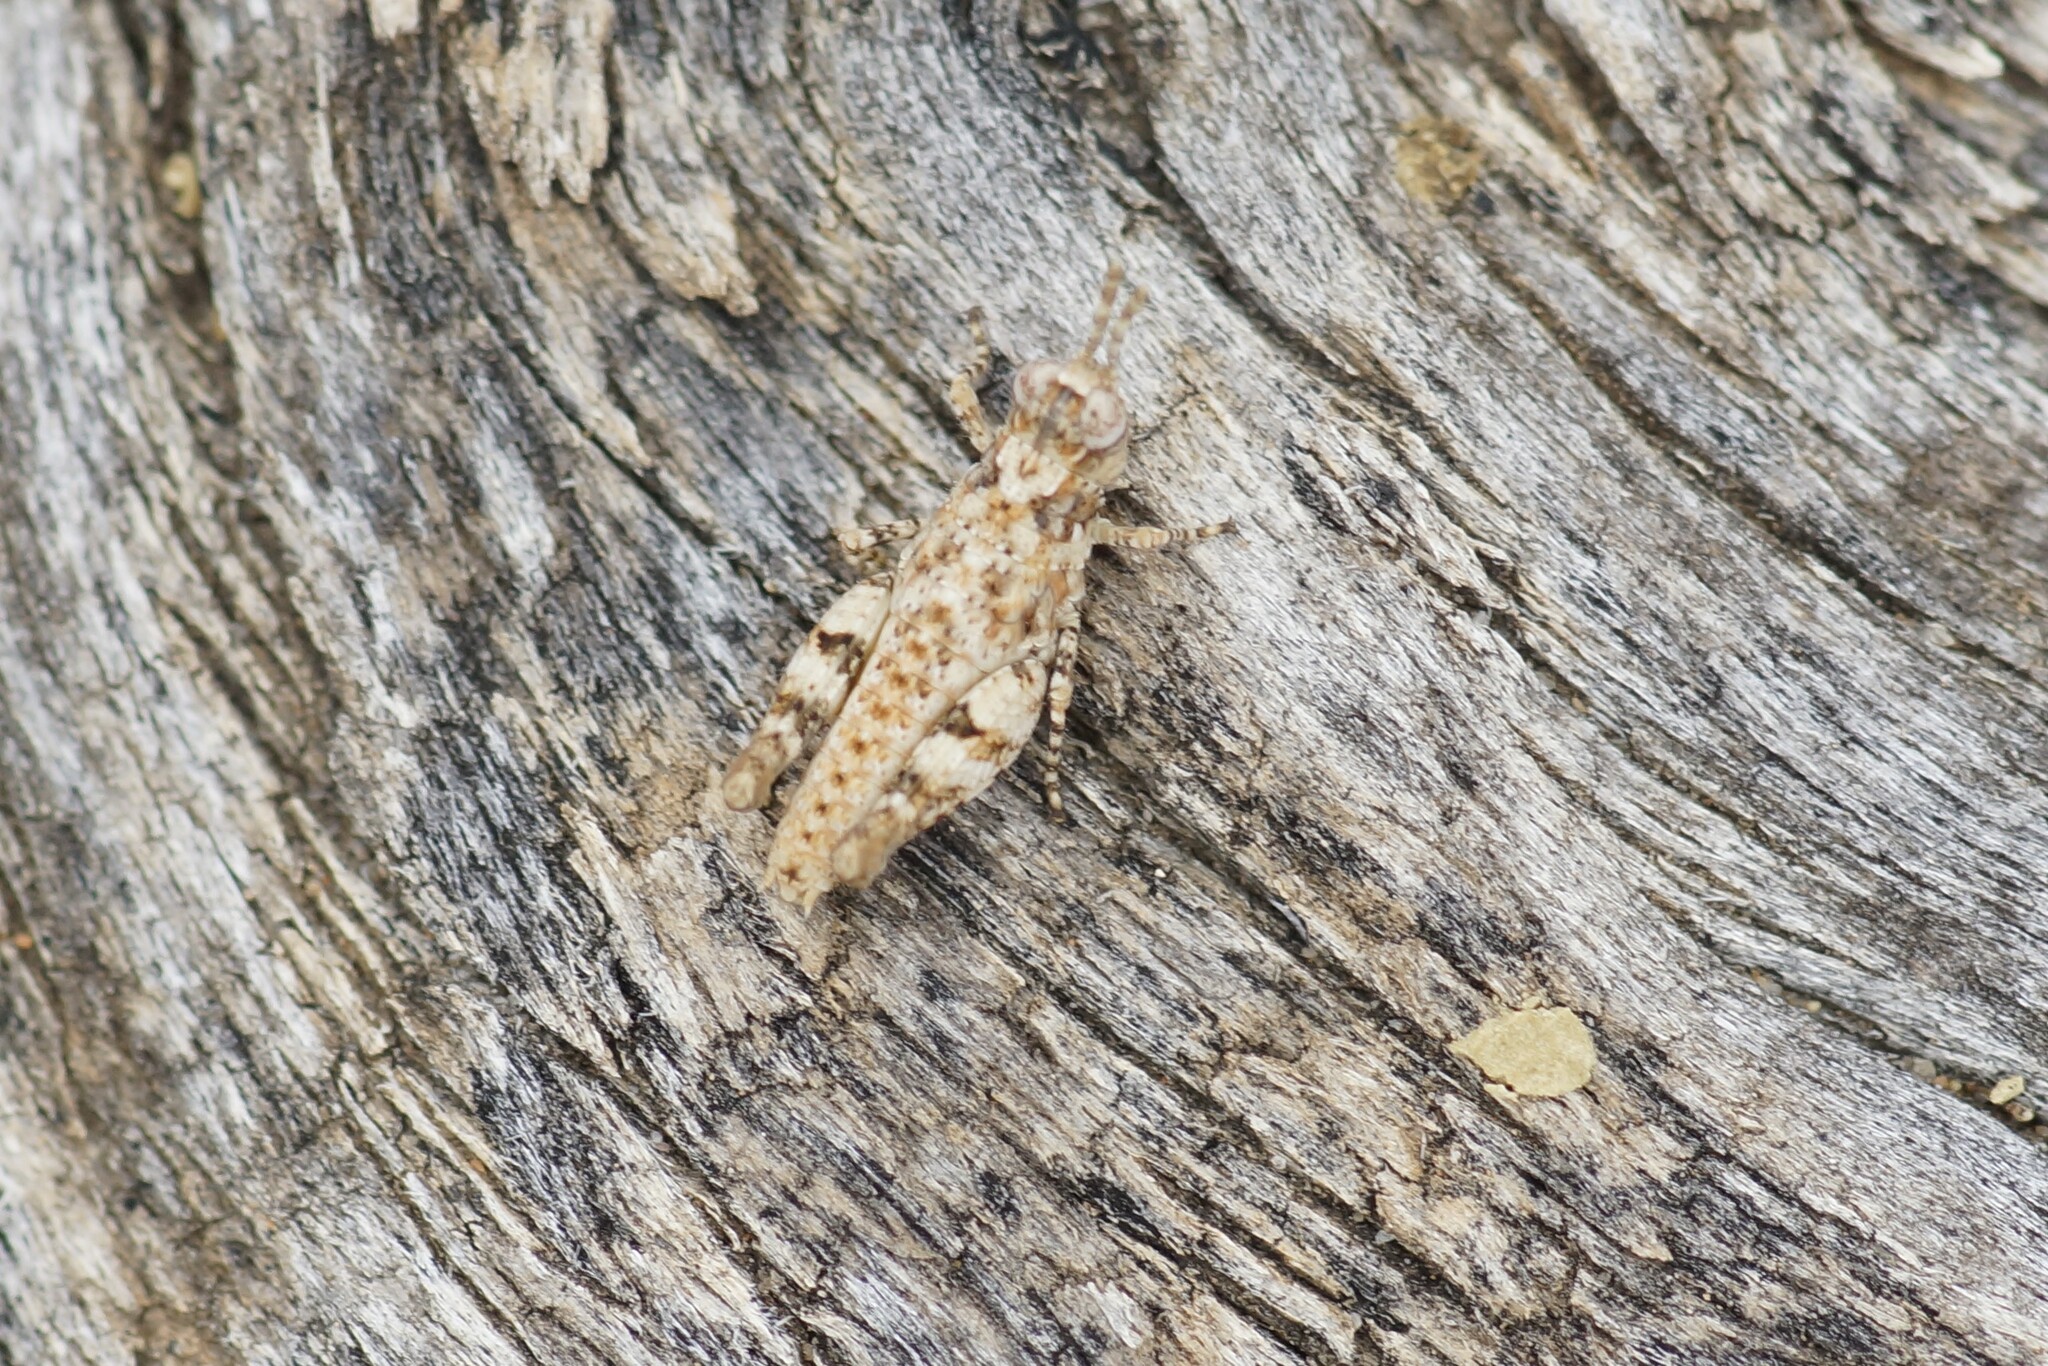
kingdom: Animalia
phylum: Arthropoda
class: Insecta
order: Orthoptera
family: Acrididae
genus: Urnisa
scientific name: Urnisa guttulosa
